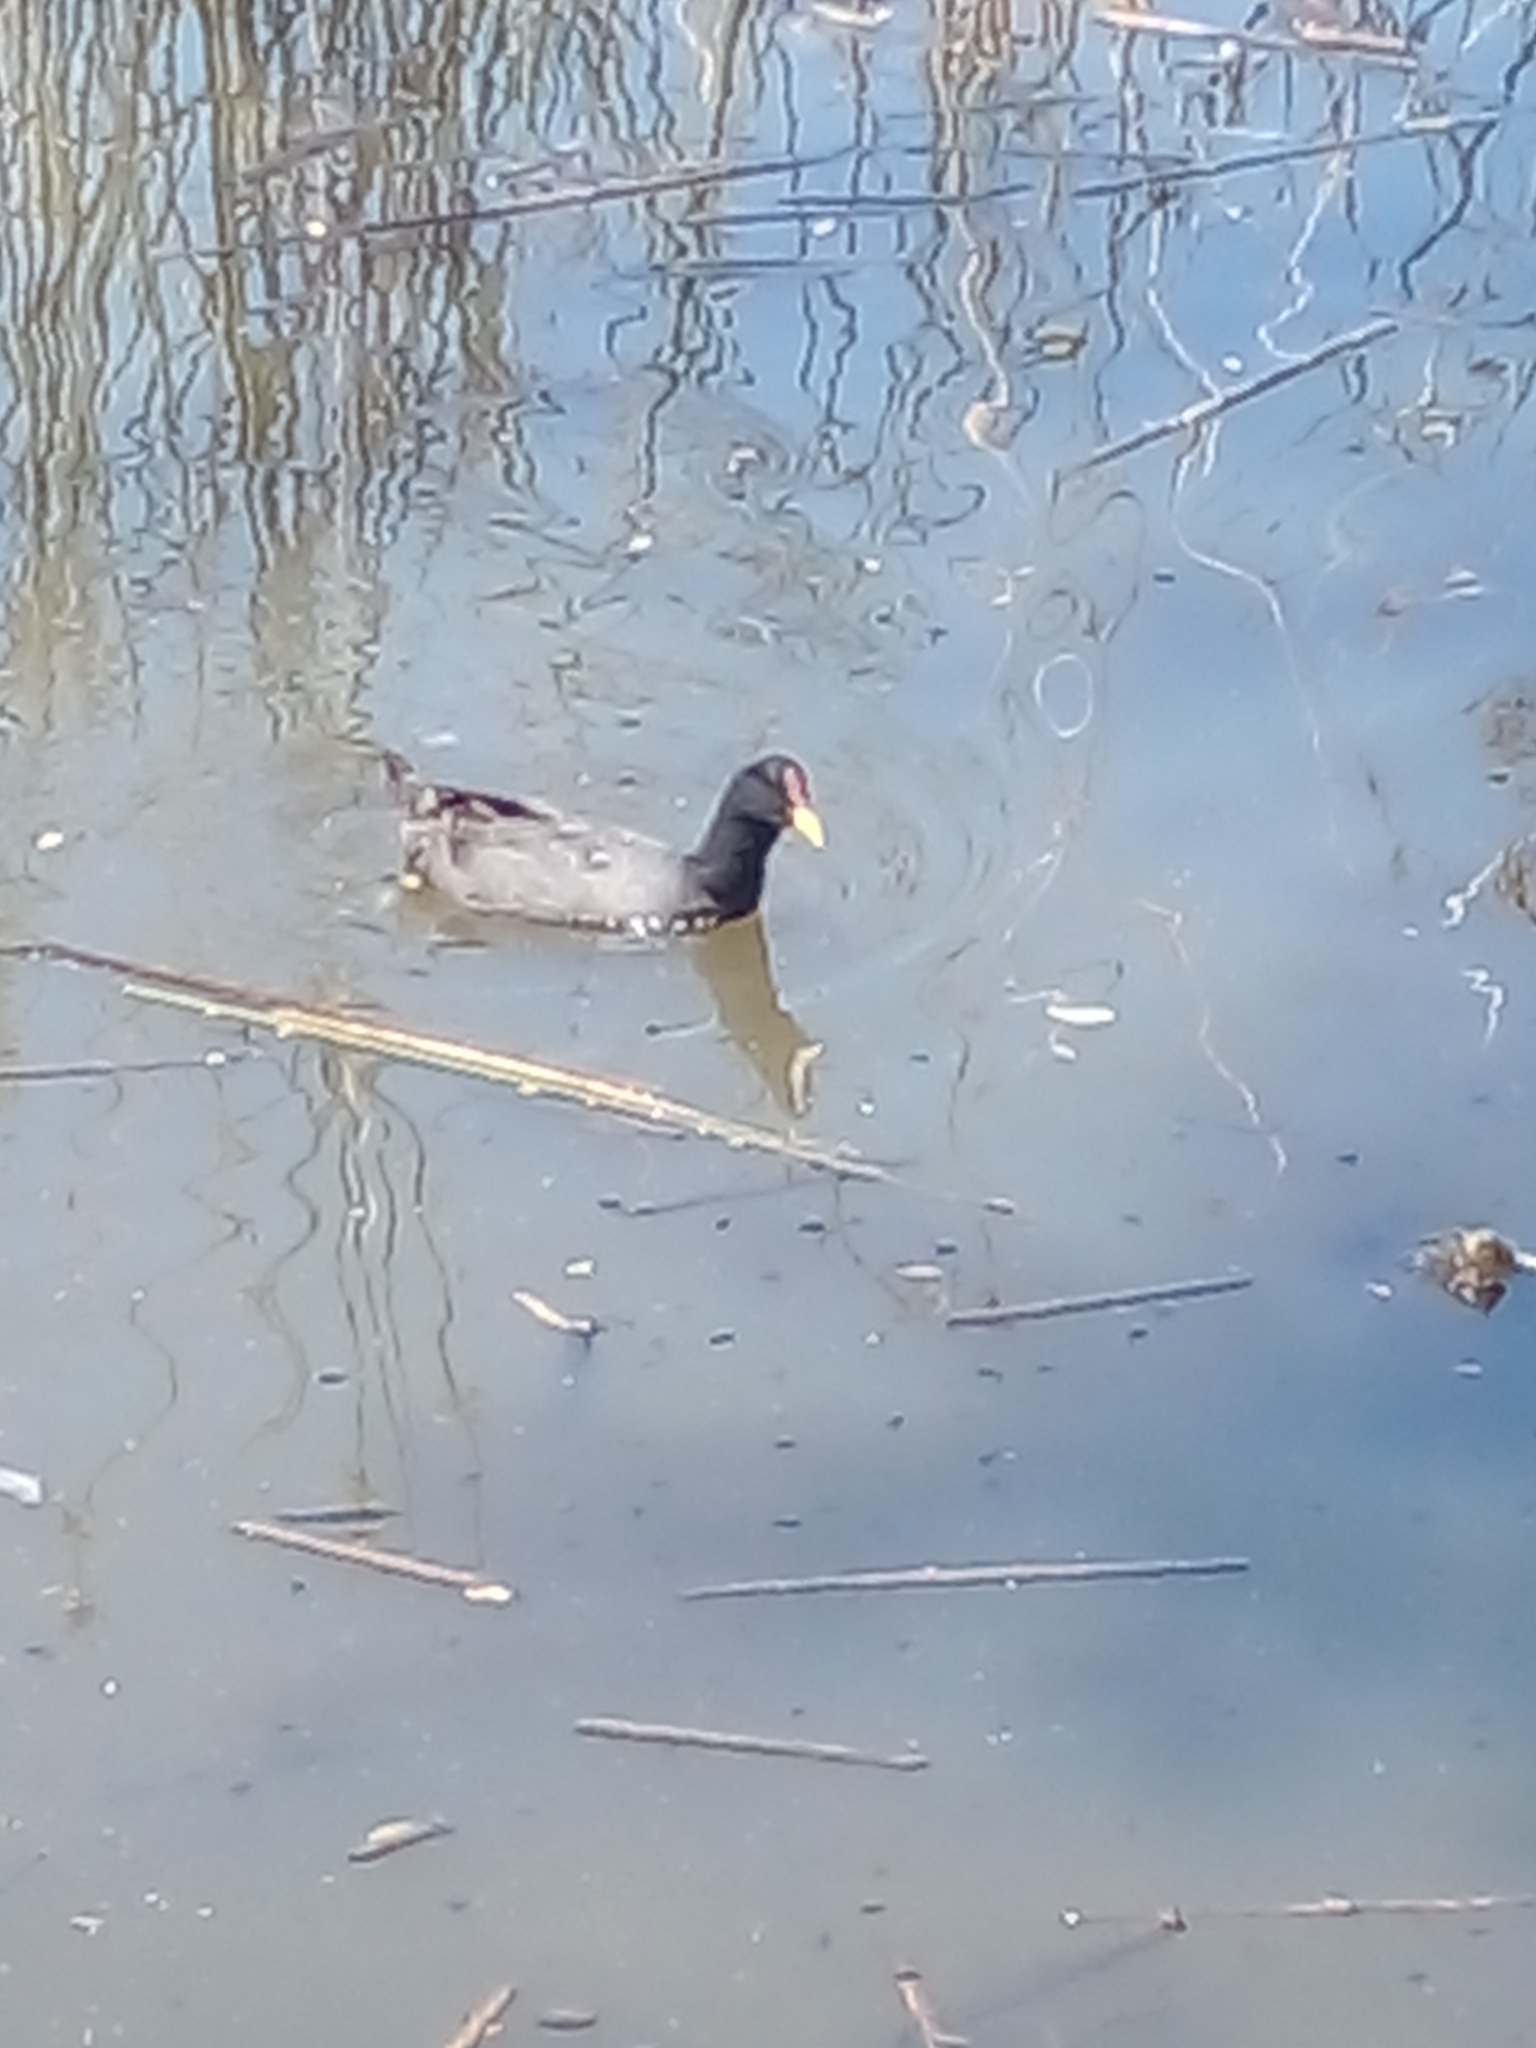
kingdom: Animalia
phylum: Chordata
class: Aves
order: Gruiformes
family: Rallidae
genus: Fulica
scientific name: Fulica rufifrons
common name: Red-fronted coot
